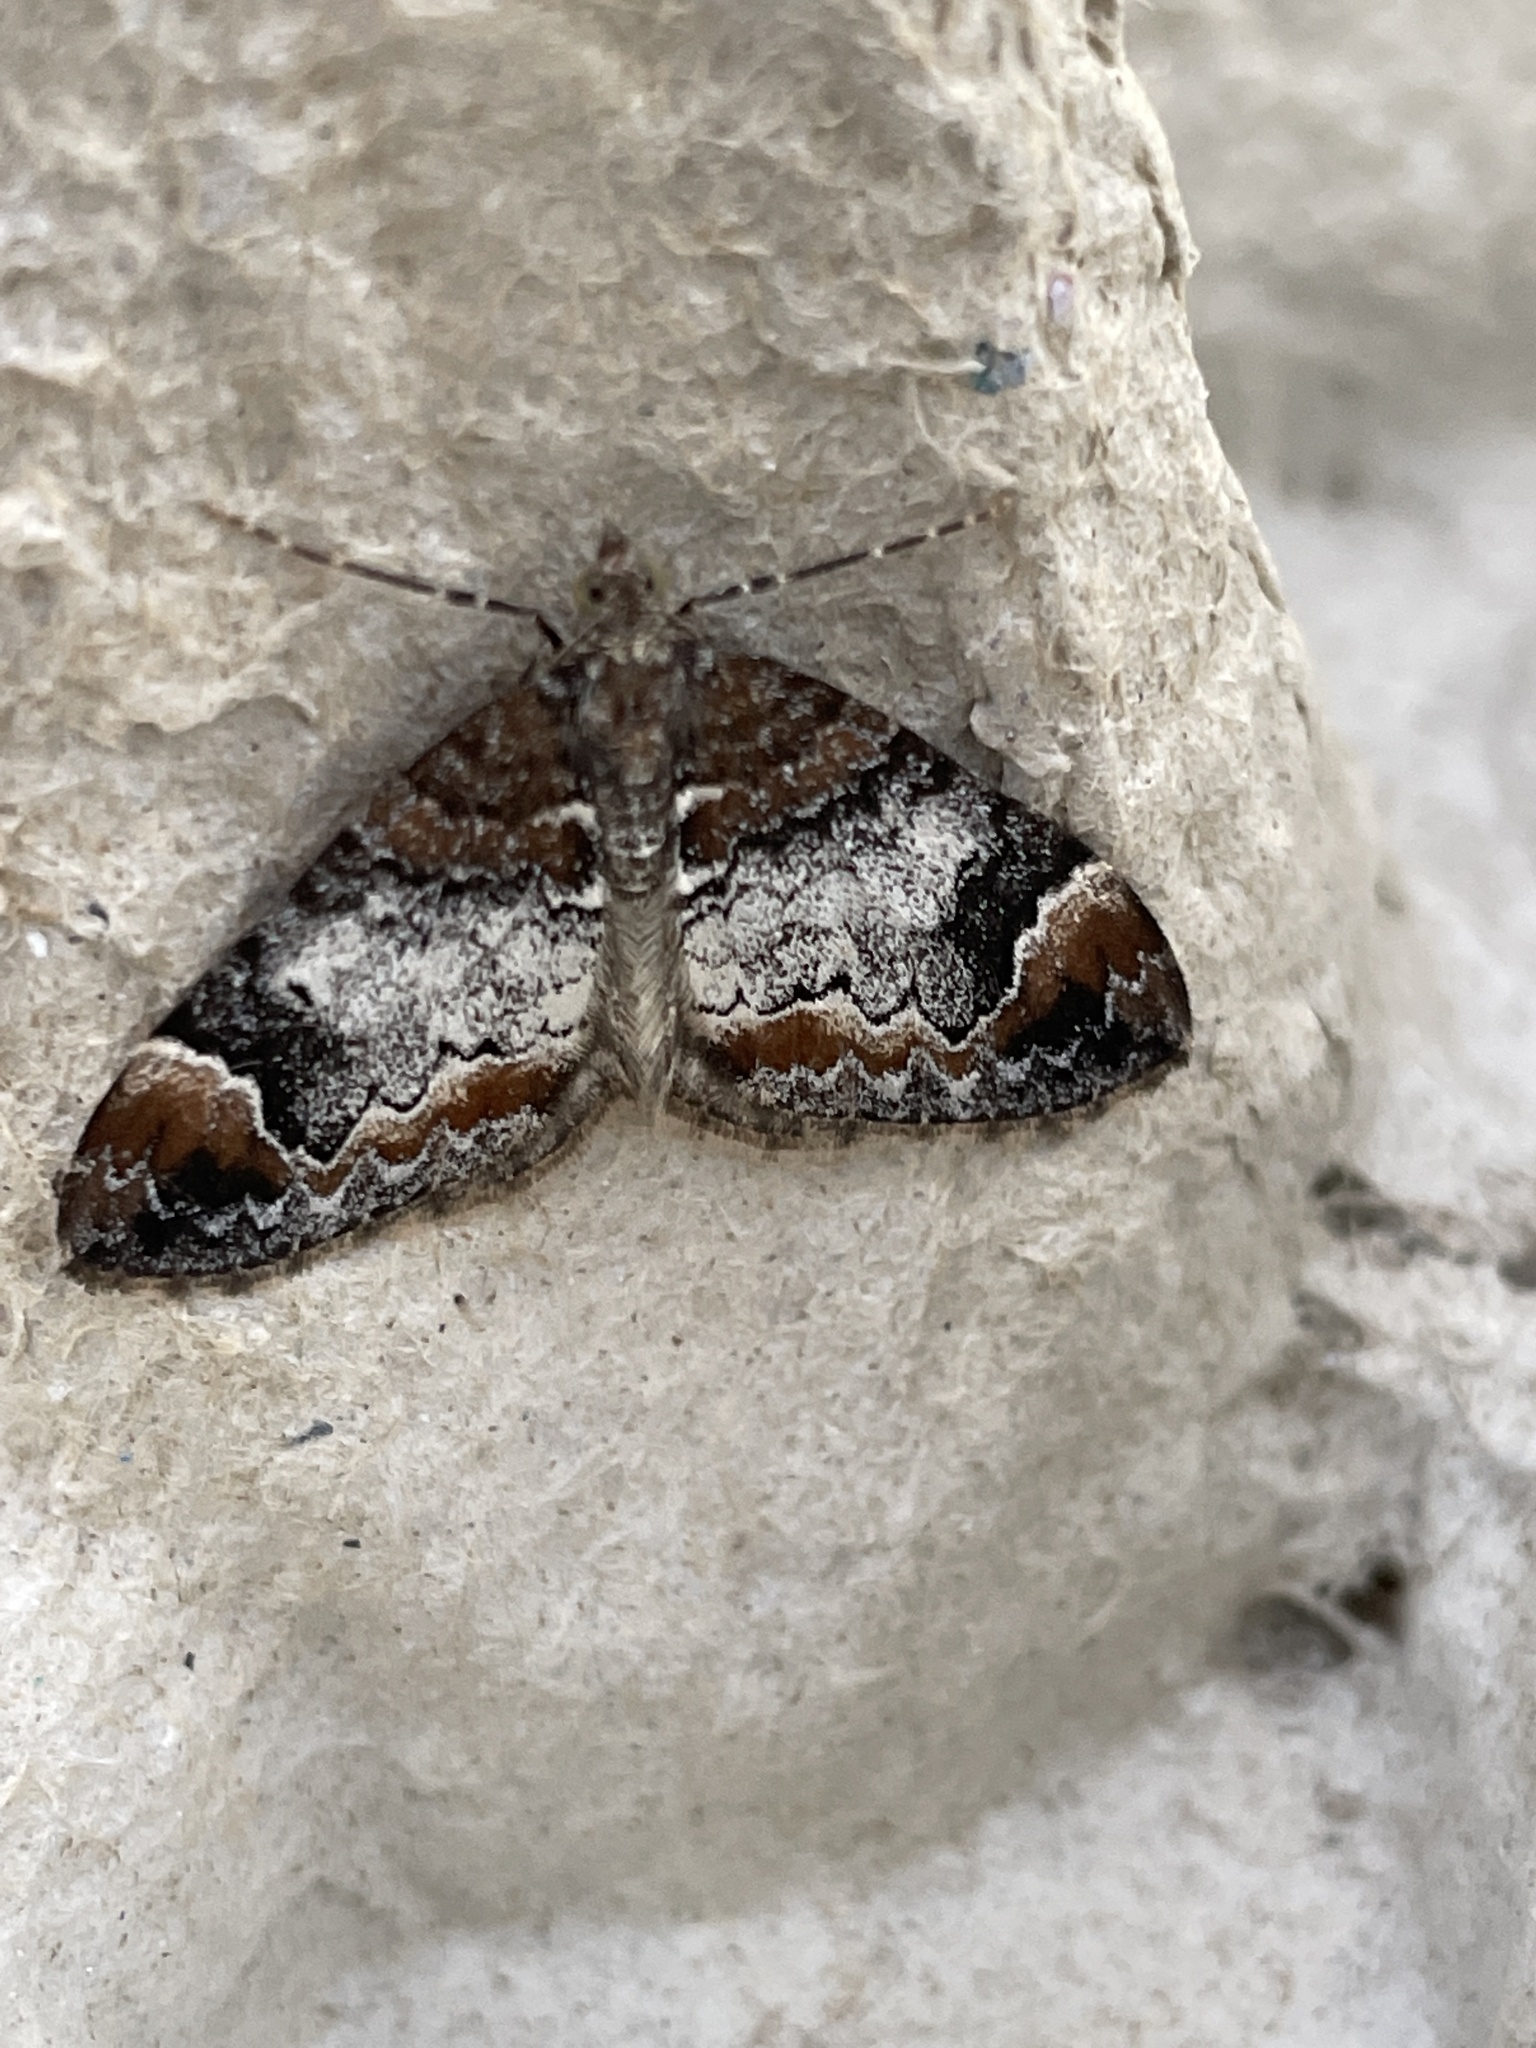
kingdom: Animalia
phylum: Arthropoda
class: Insecta
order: Lepidoptera
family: Geometridae
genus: Dysstroma
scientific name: Dysstroma truncata
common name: Common marbled carpet
